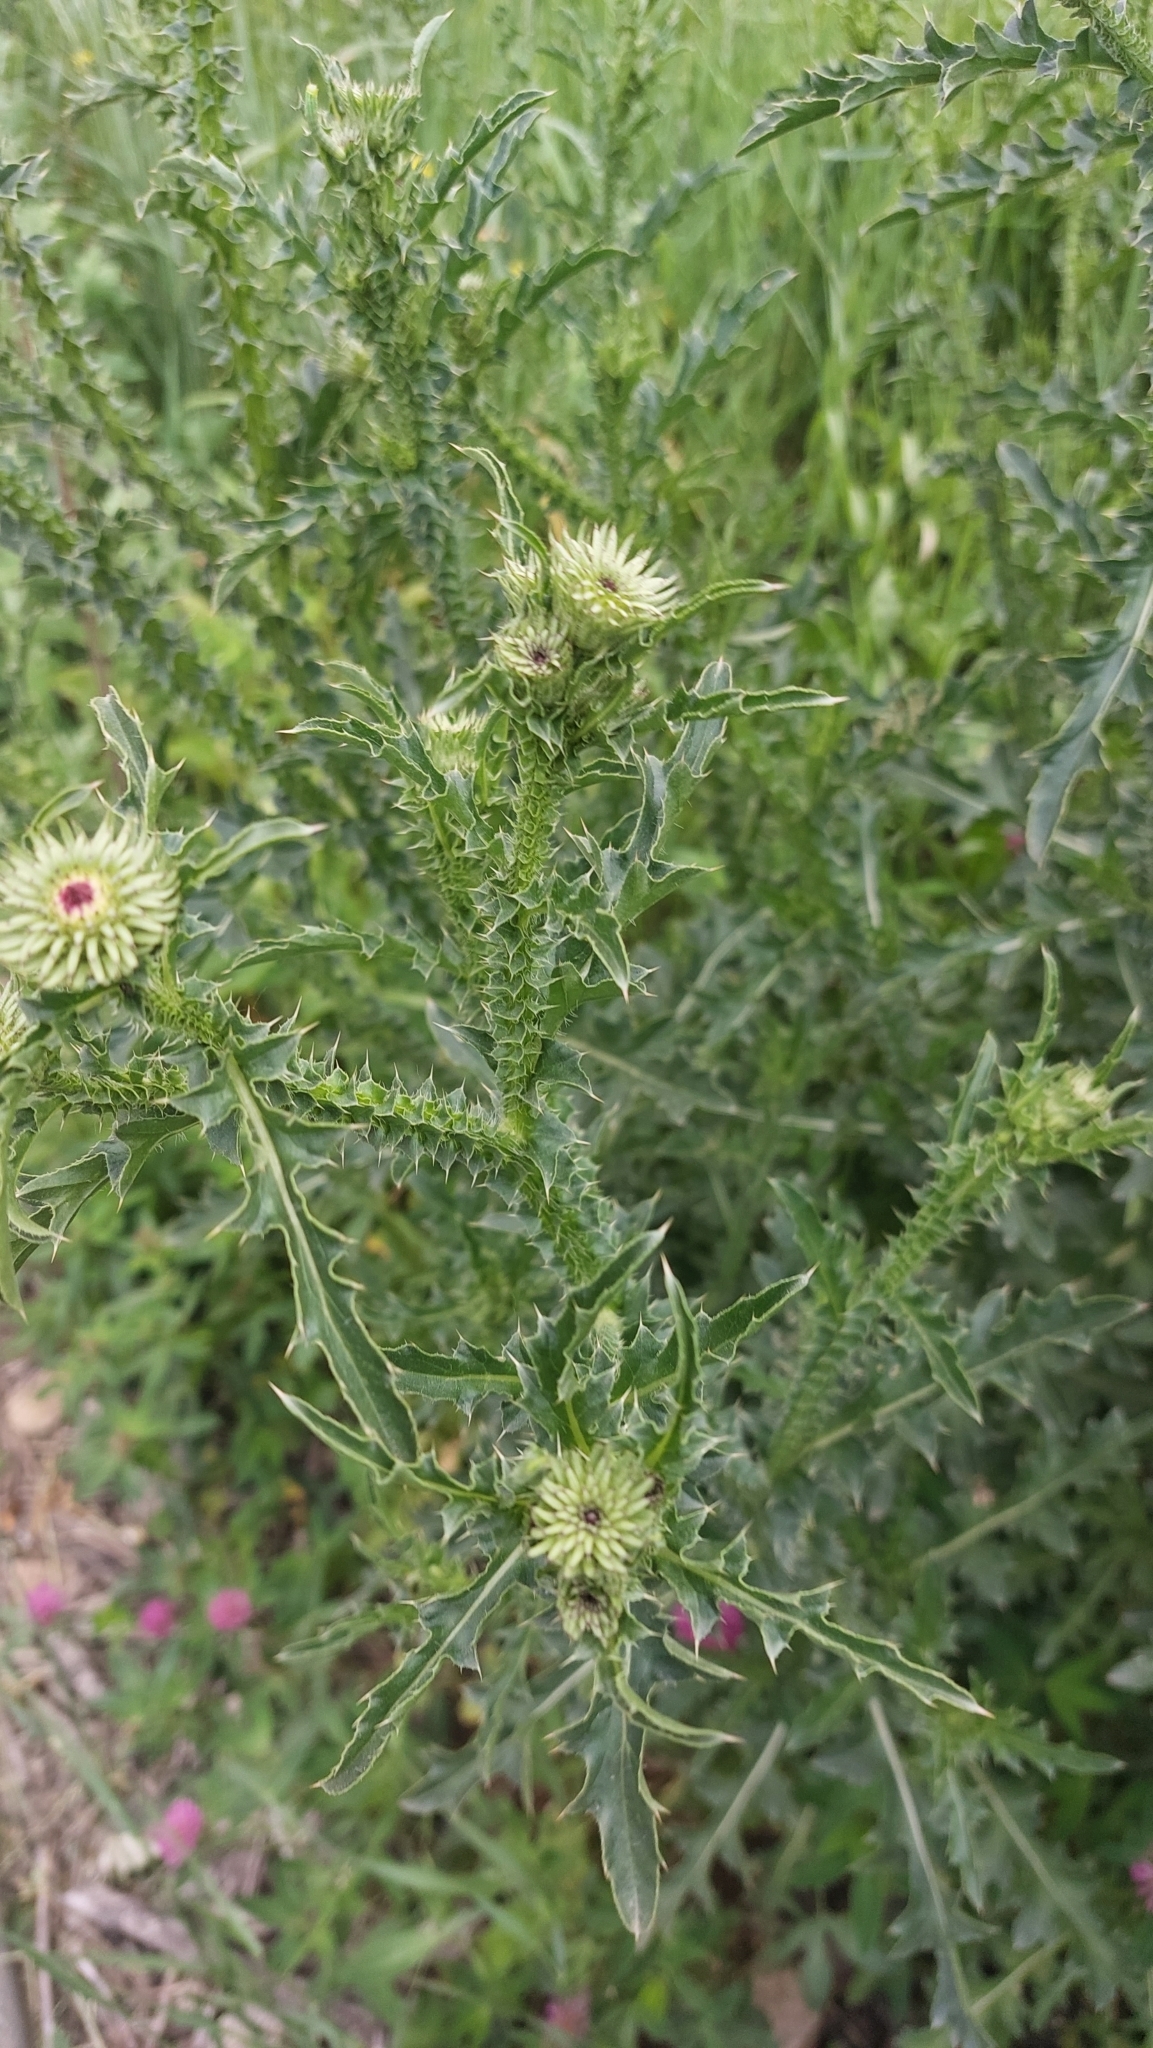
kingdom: Plantae
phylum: Tracheophyta
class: Magnoliopsida
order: Asterales
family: Asteraceae
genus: Carduus
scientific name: Carduus acanthoides
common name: Plumeless thistle
